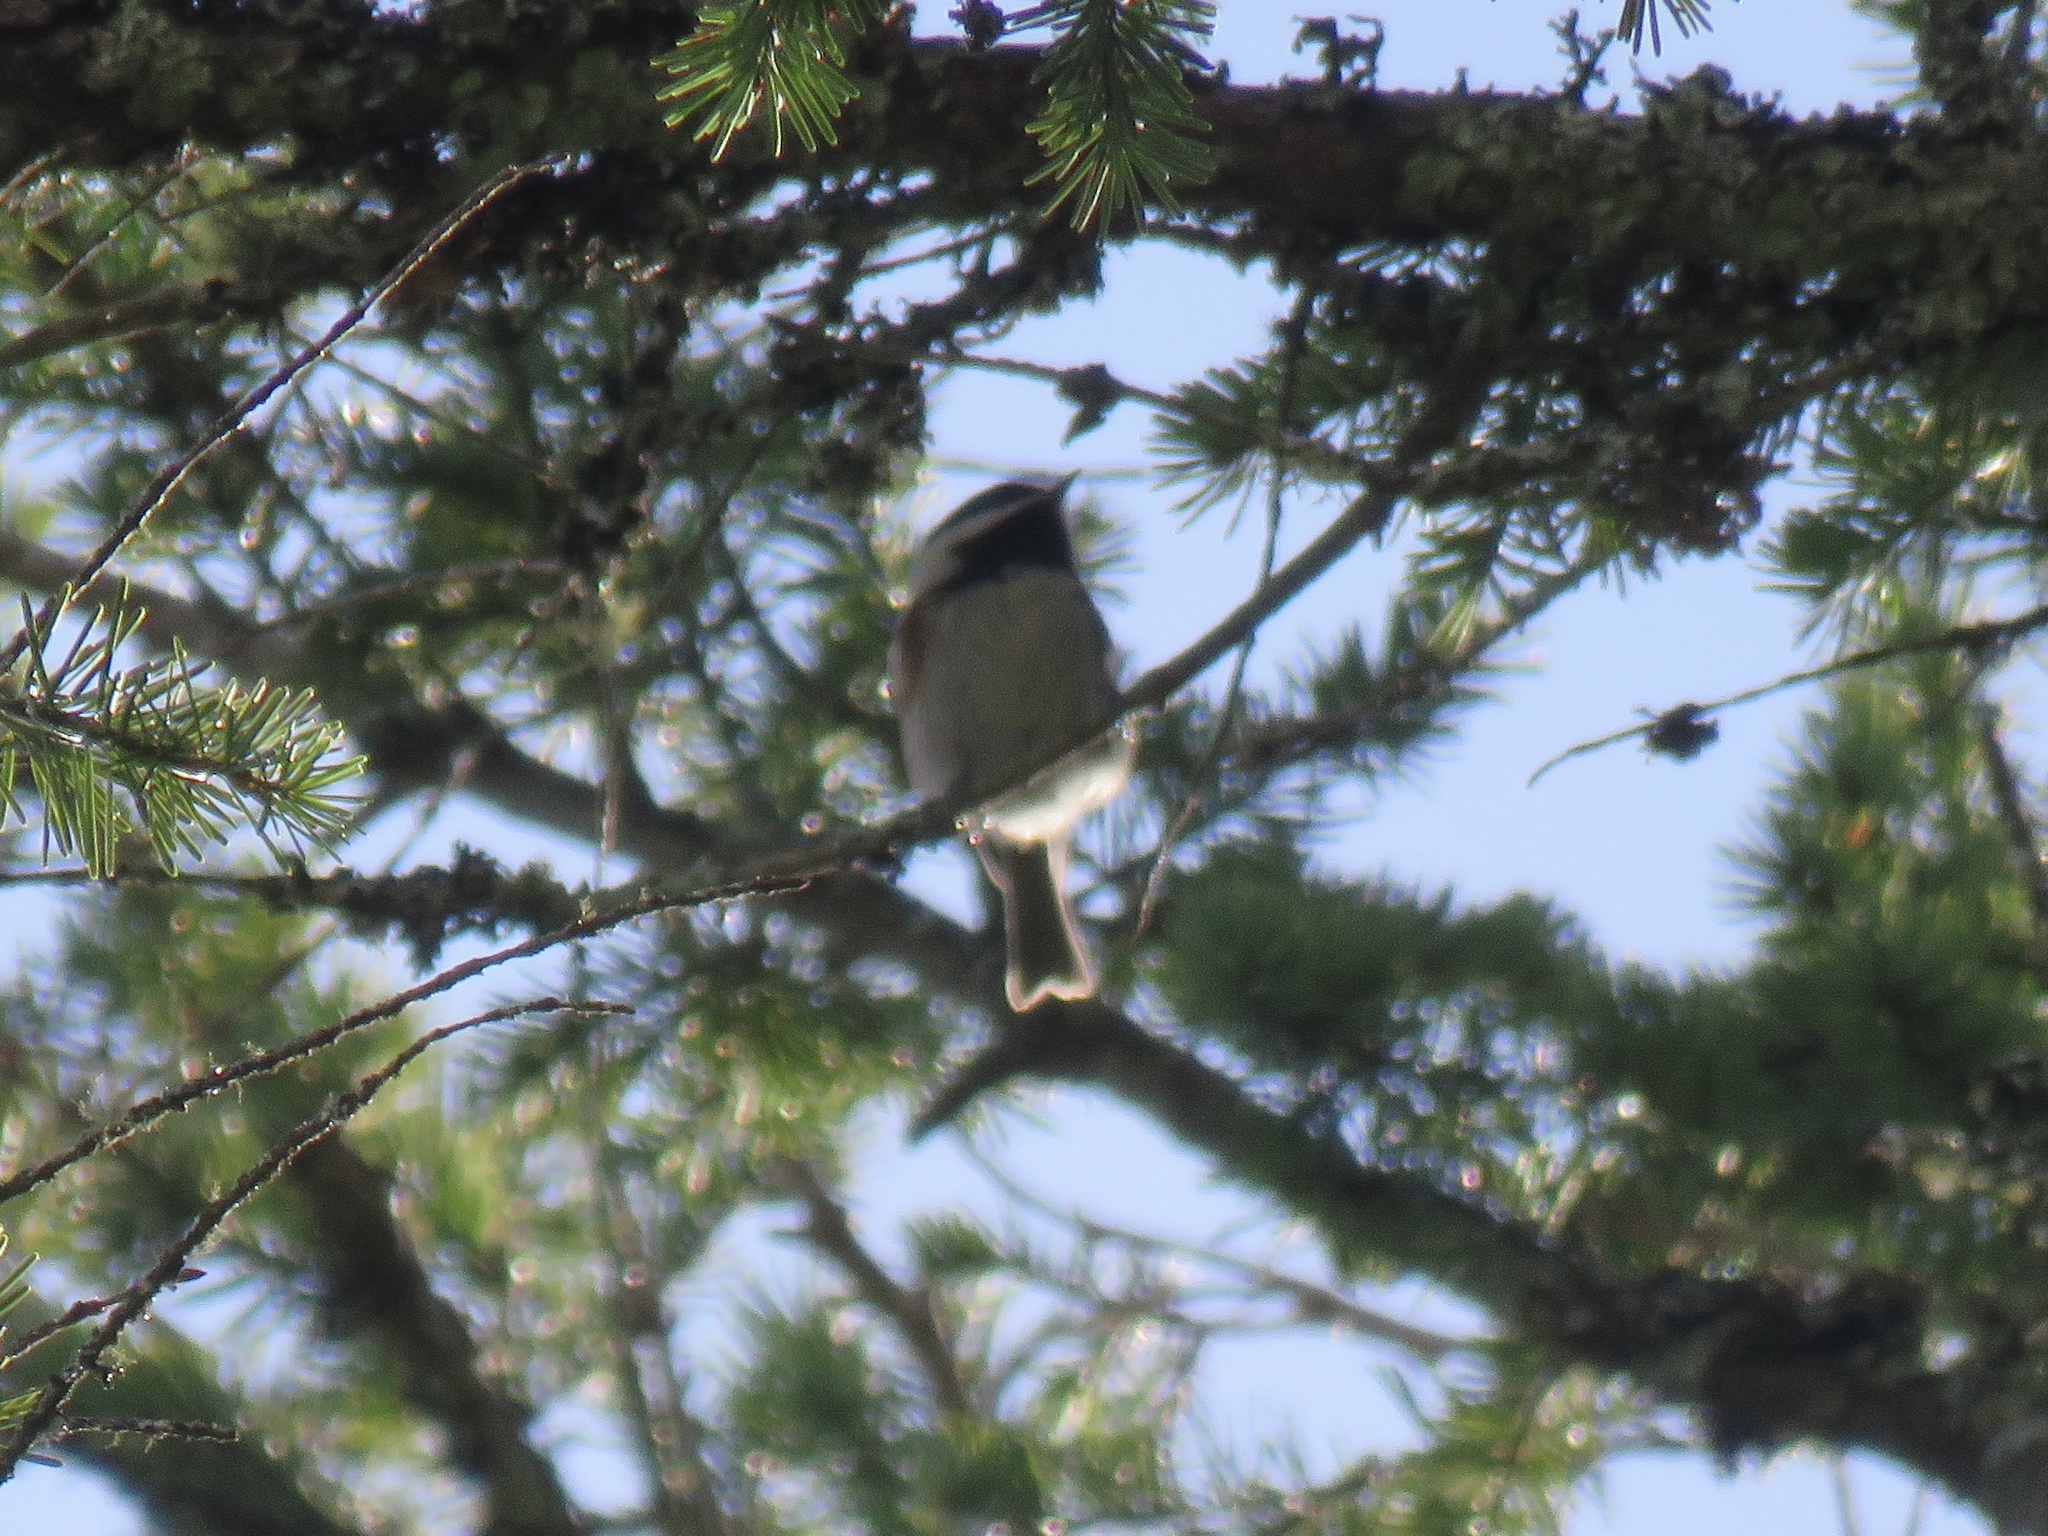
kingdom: Animalia
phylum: Chordata
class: Aves
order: Passeriformes
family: Paridae
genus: Poecile
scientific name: Poecile rufescens
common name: Chestnut-backed chickadee
